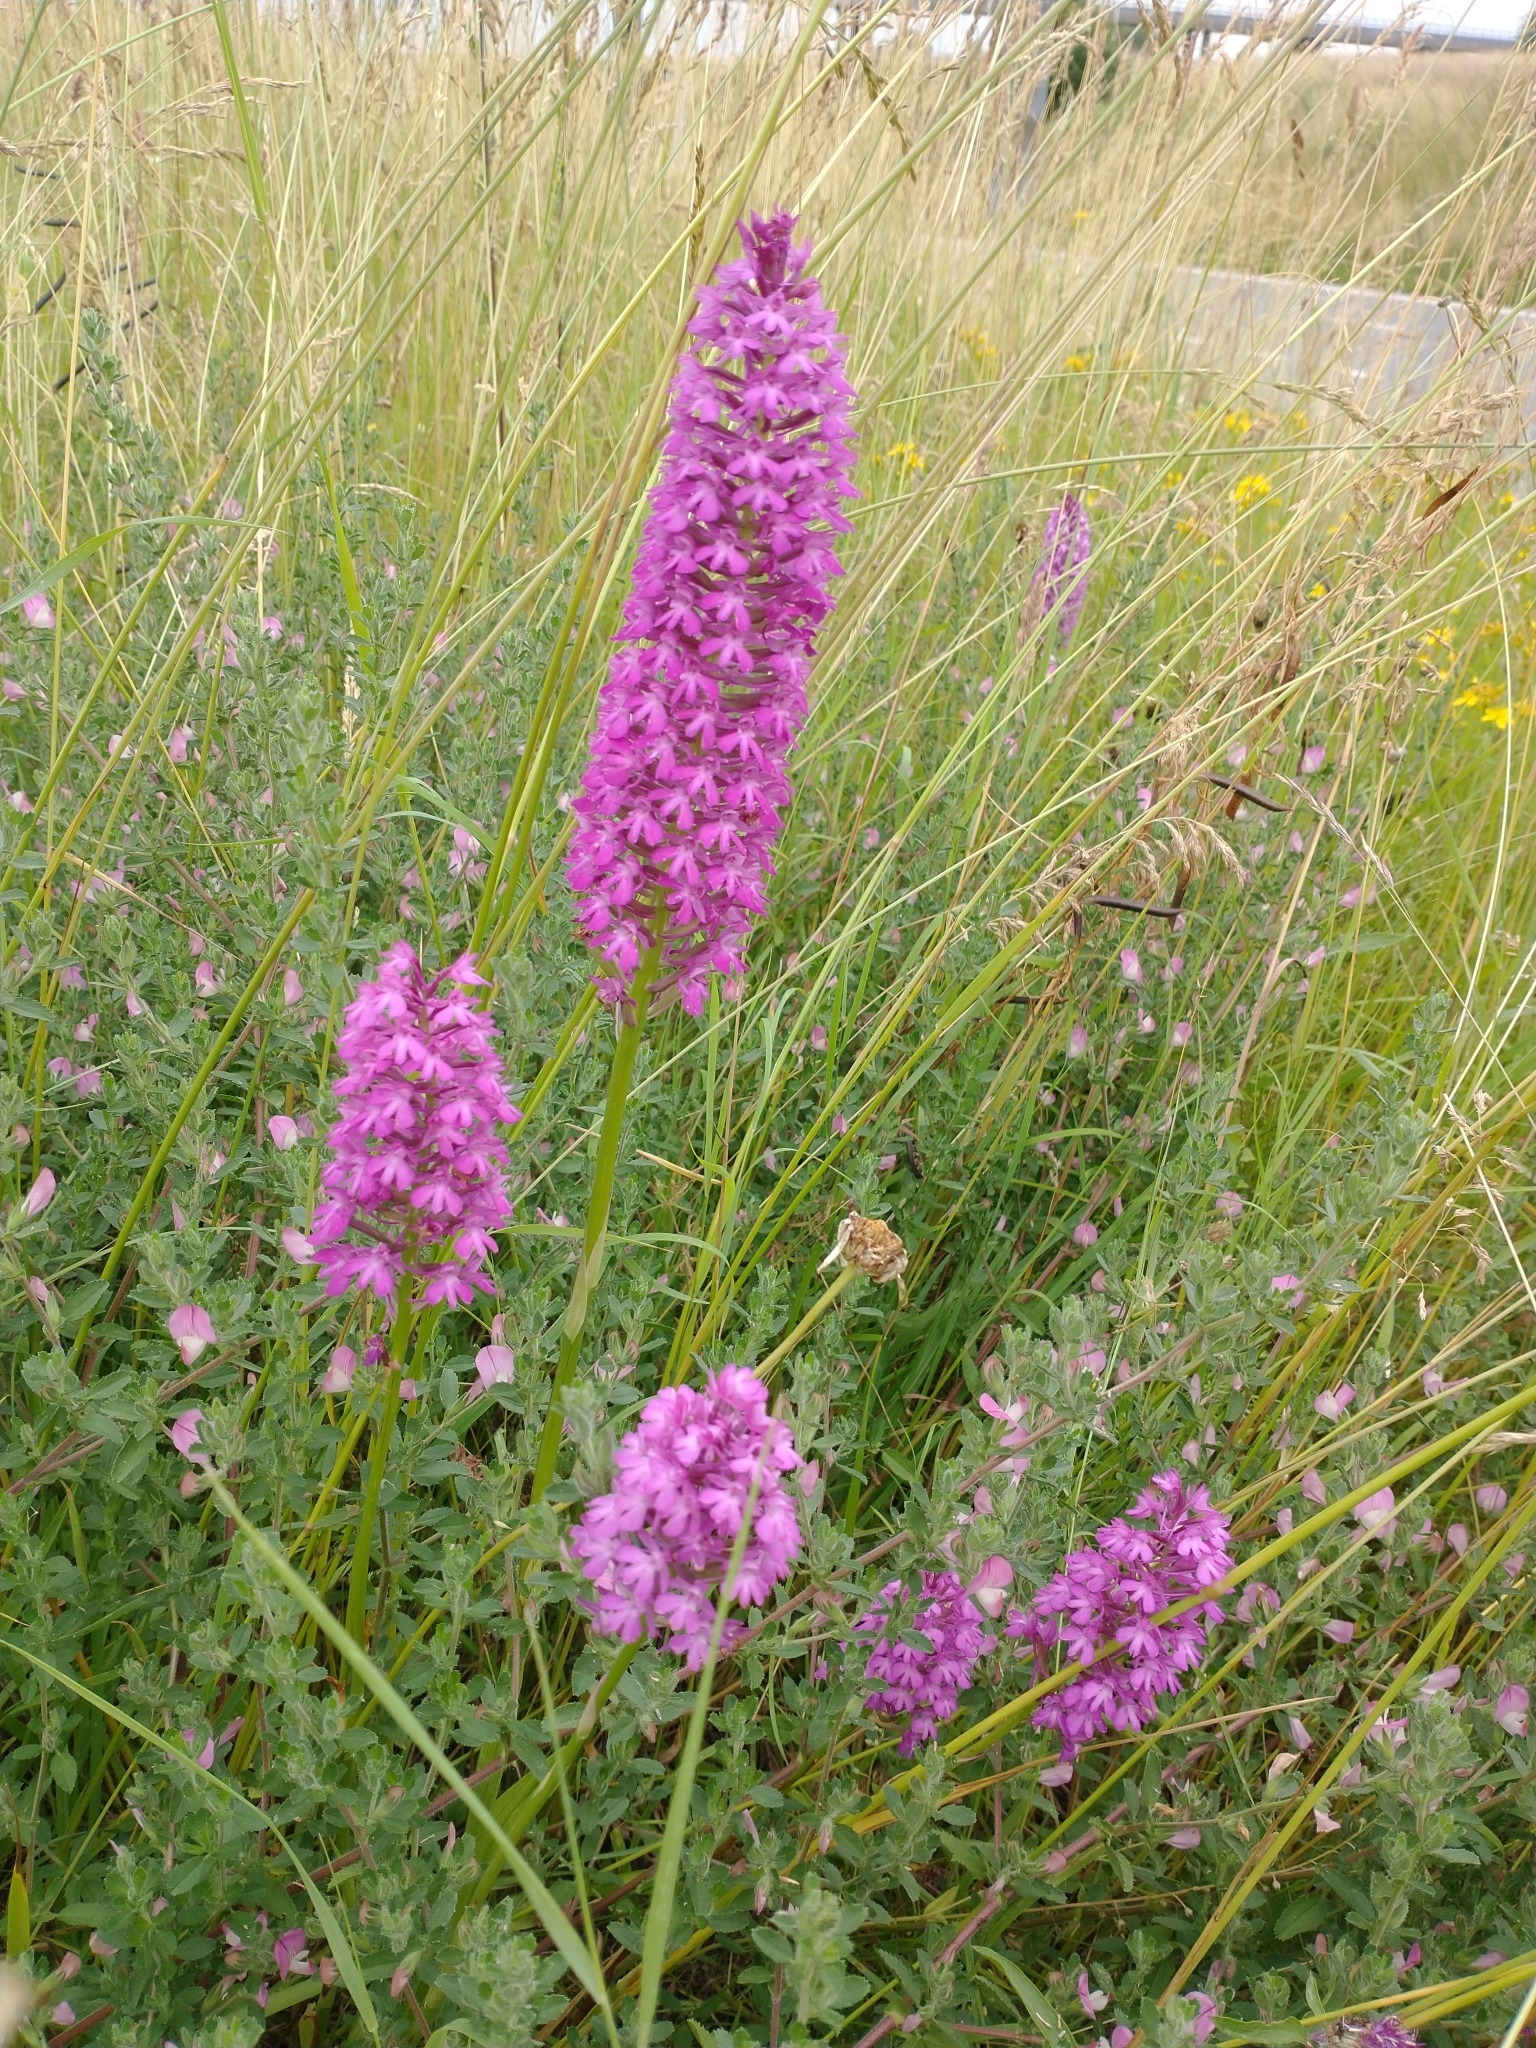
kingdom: Plantae
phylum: Tracheophyta
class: Liliopsida
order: Asparagales
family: Orchidaceae
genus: Anacamptis
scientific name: Anacamptis pyramidalis
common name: Pyramidal orchid
